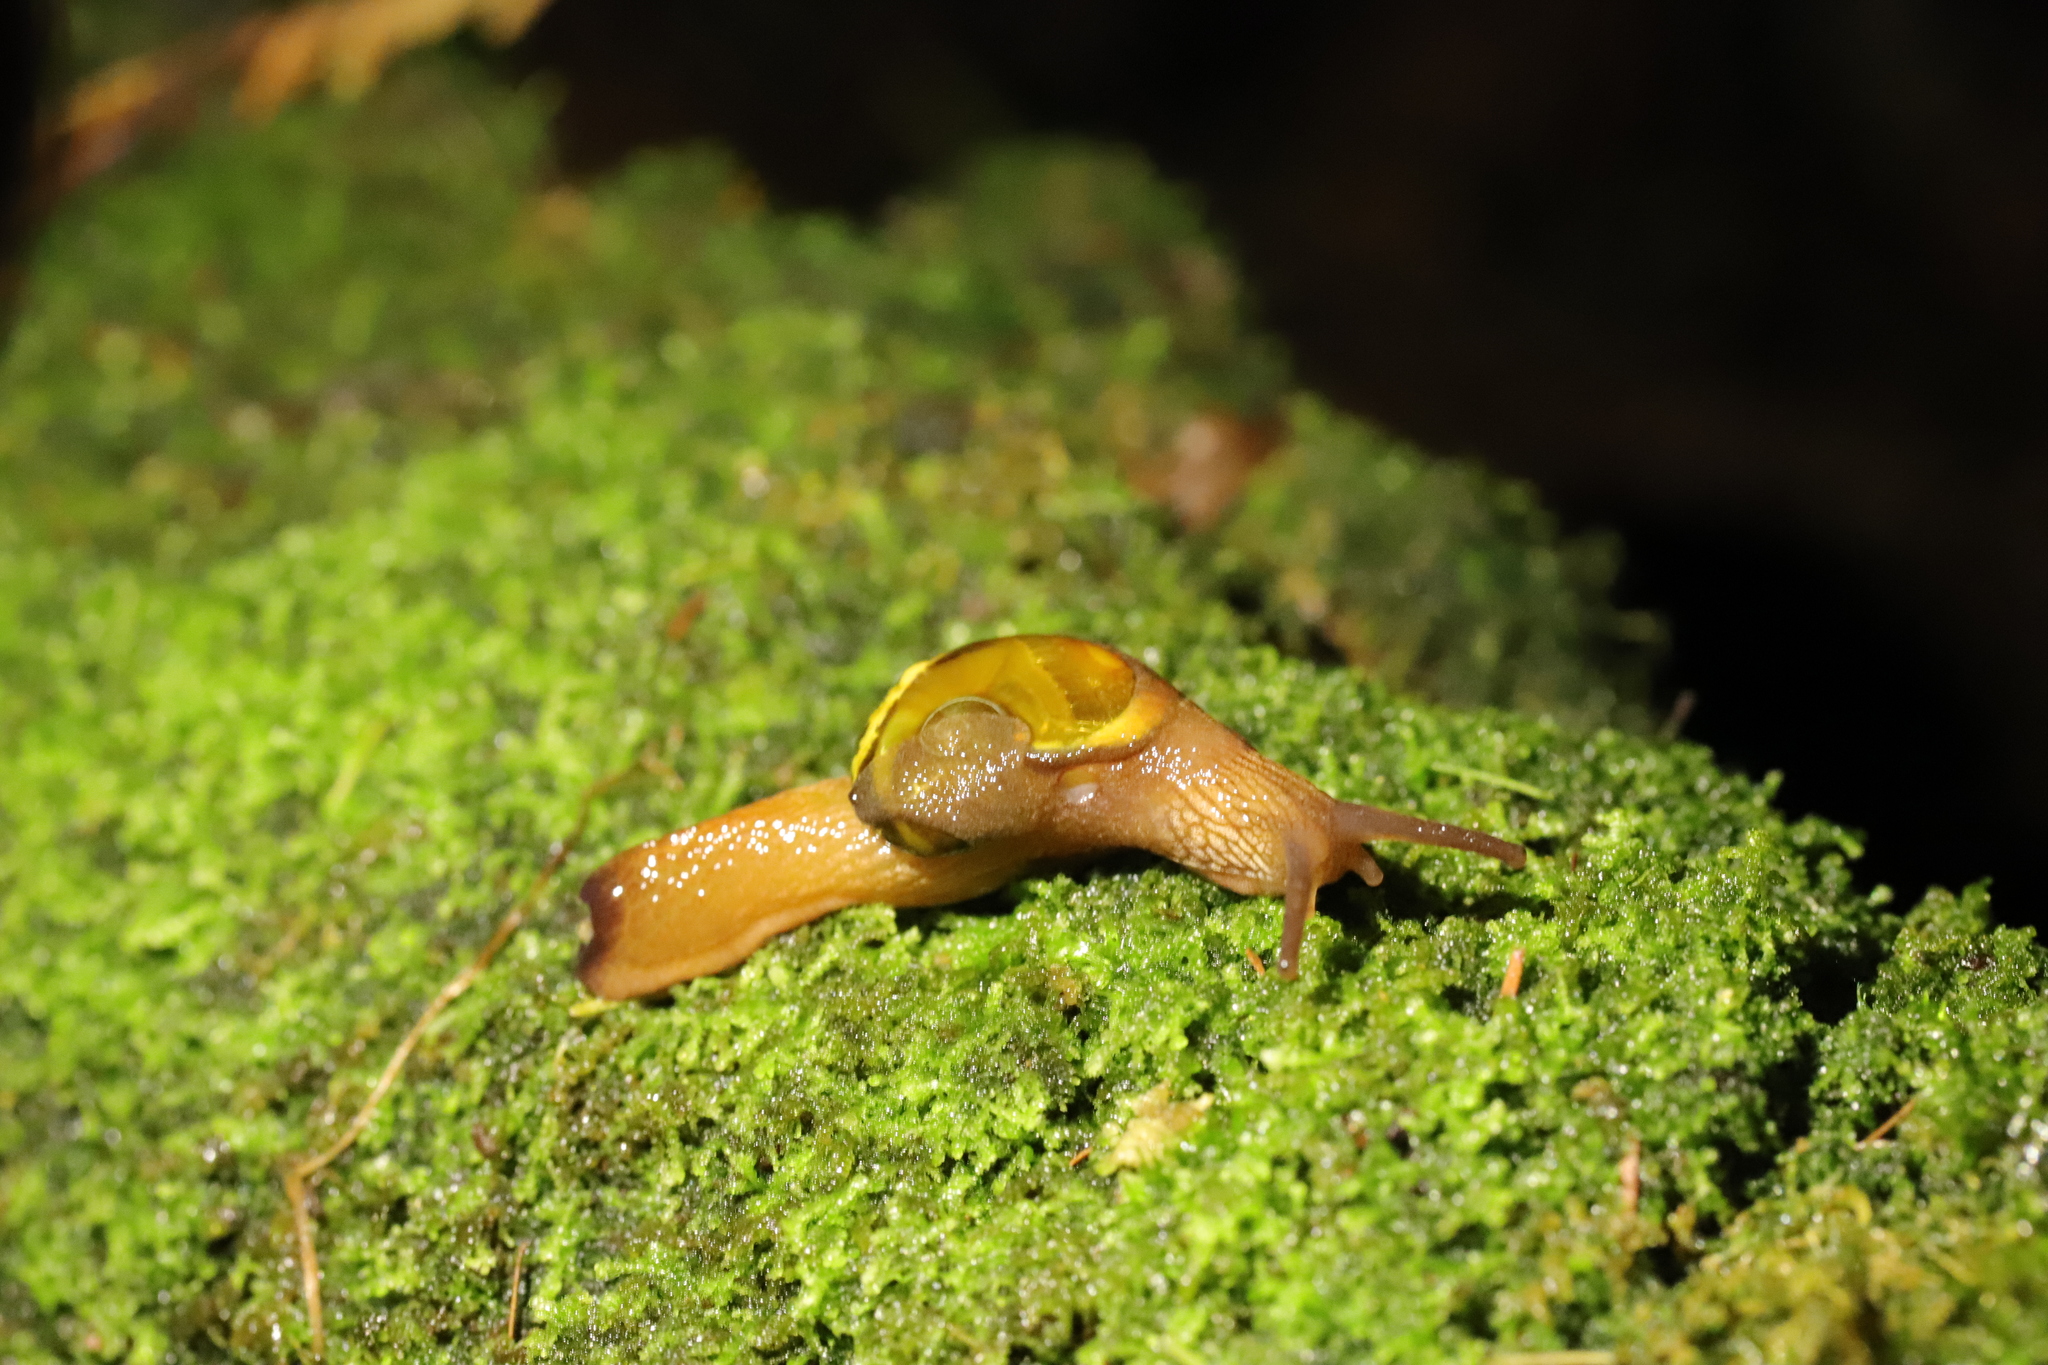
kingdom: Animalia
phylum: Mollusca
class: Gastropoda
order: Stylommatophora
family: Helicarionidae
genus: Helicarion
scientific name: Helicarion cuvieri
